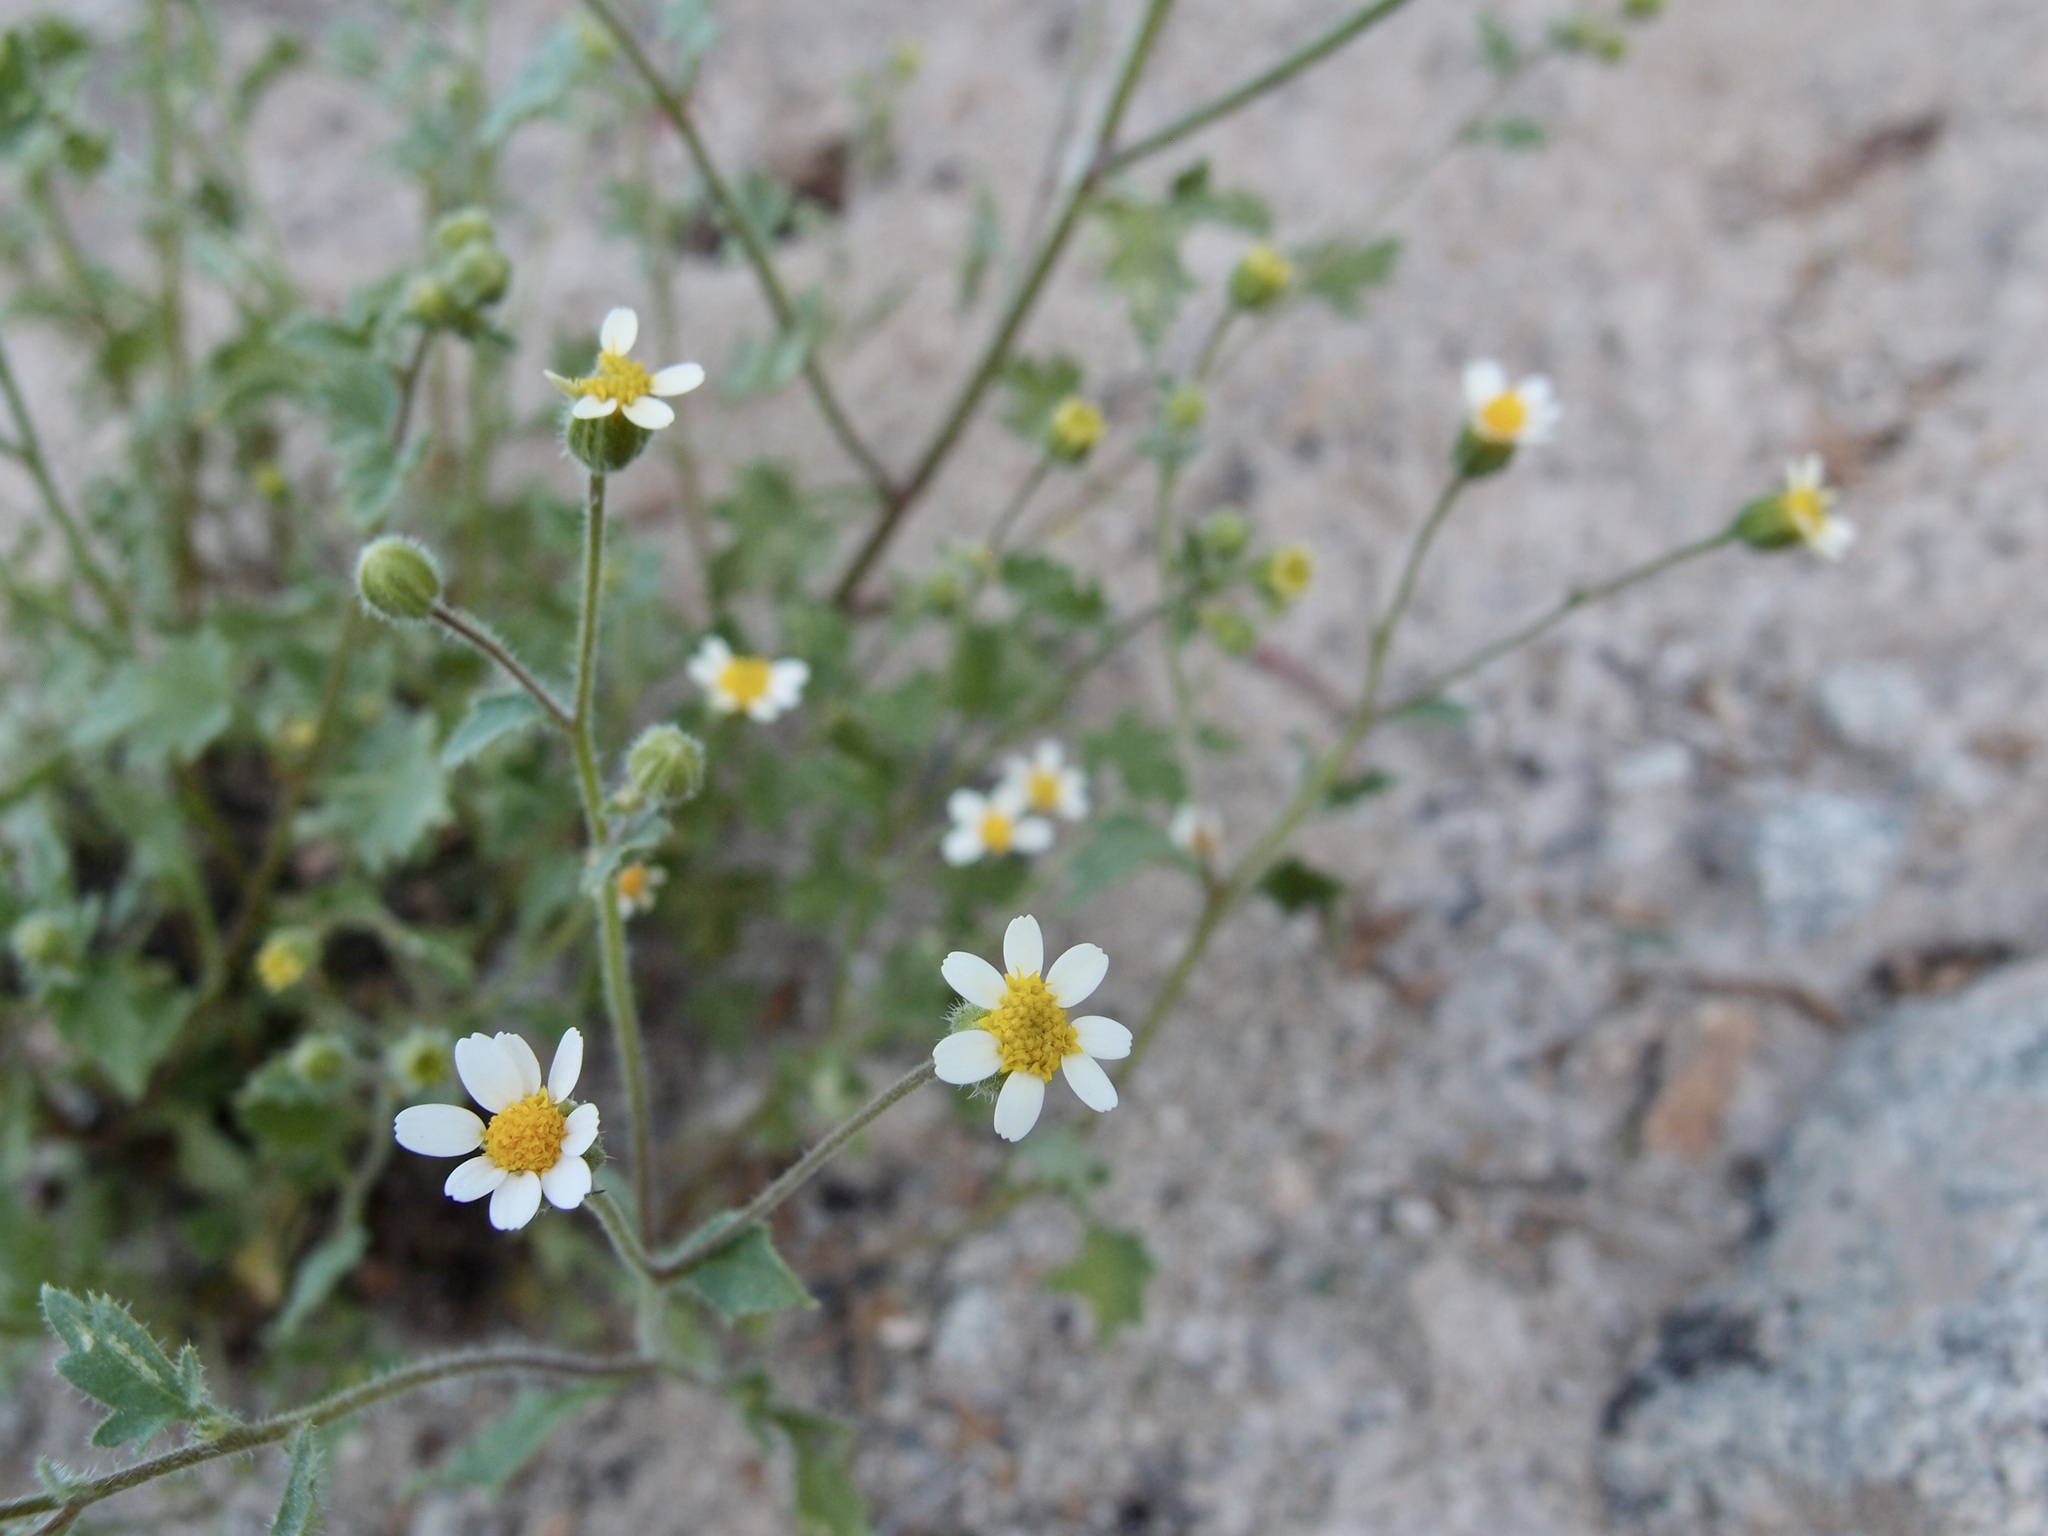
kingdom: Plantae
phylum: Tracheophyta
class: Magnoliopsida
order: Asterales
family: Asteraceae
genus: Laphamia
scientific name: Laphamia emoryi
